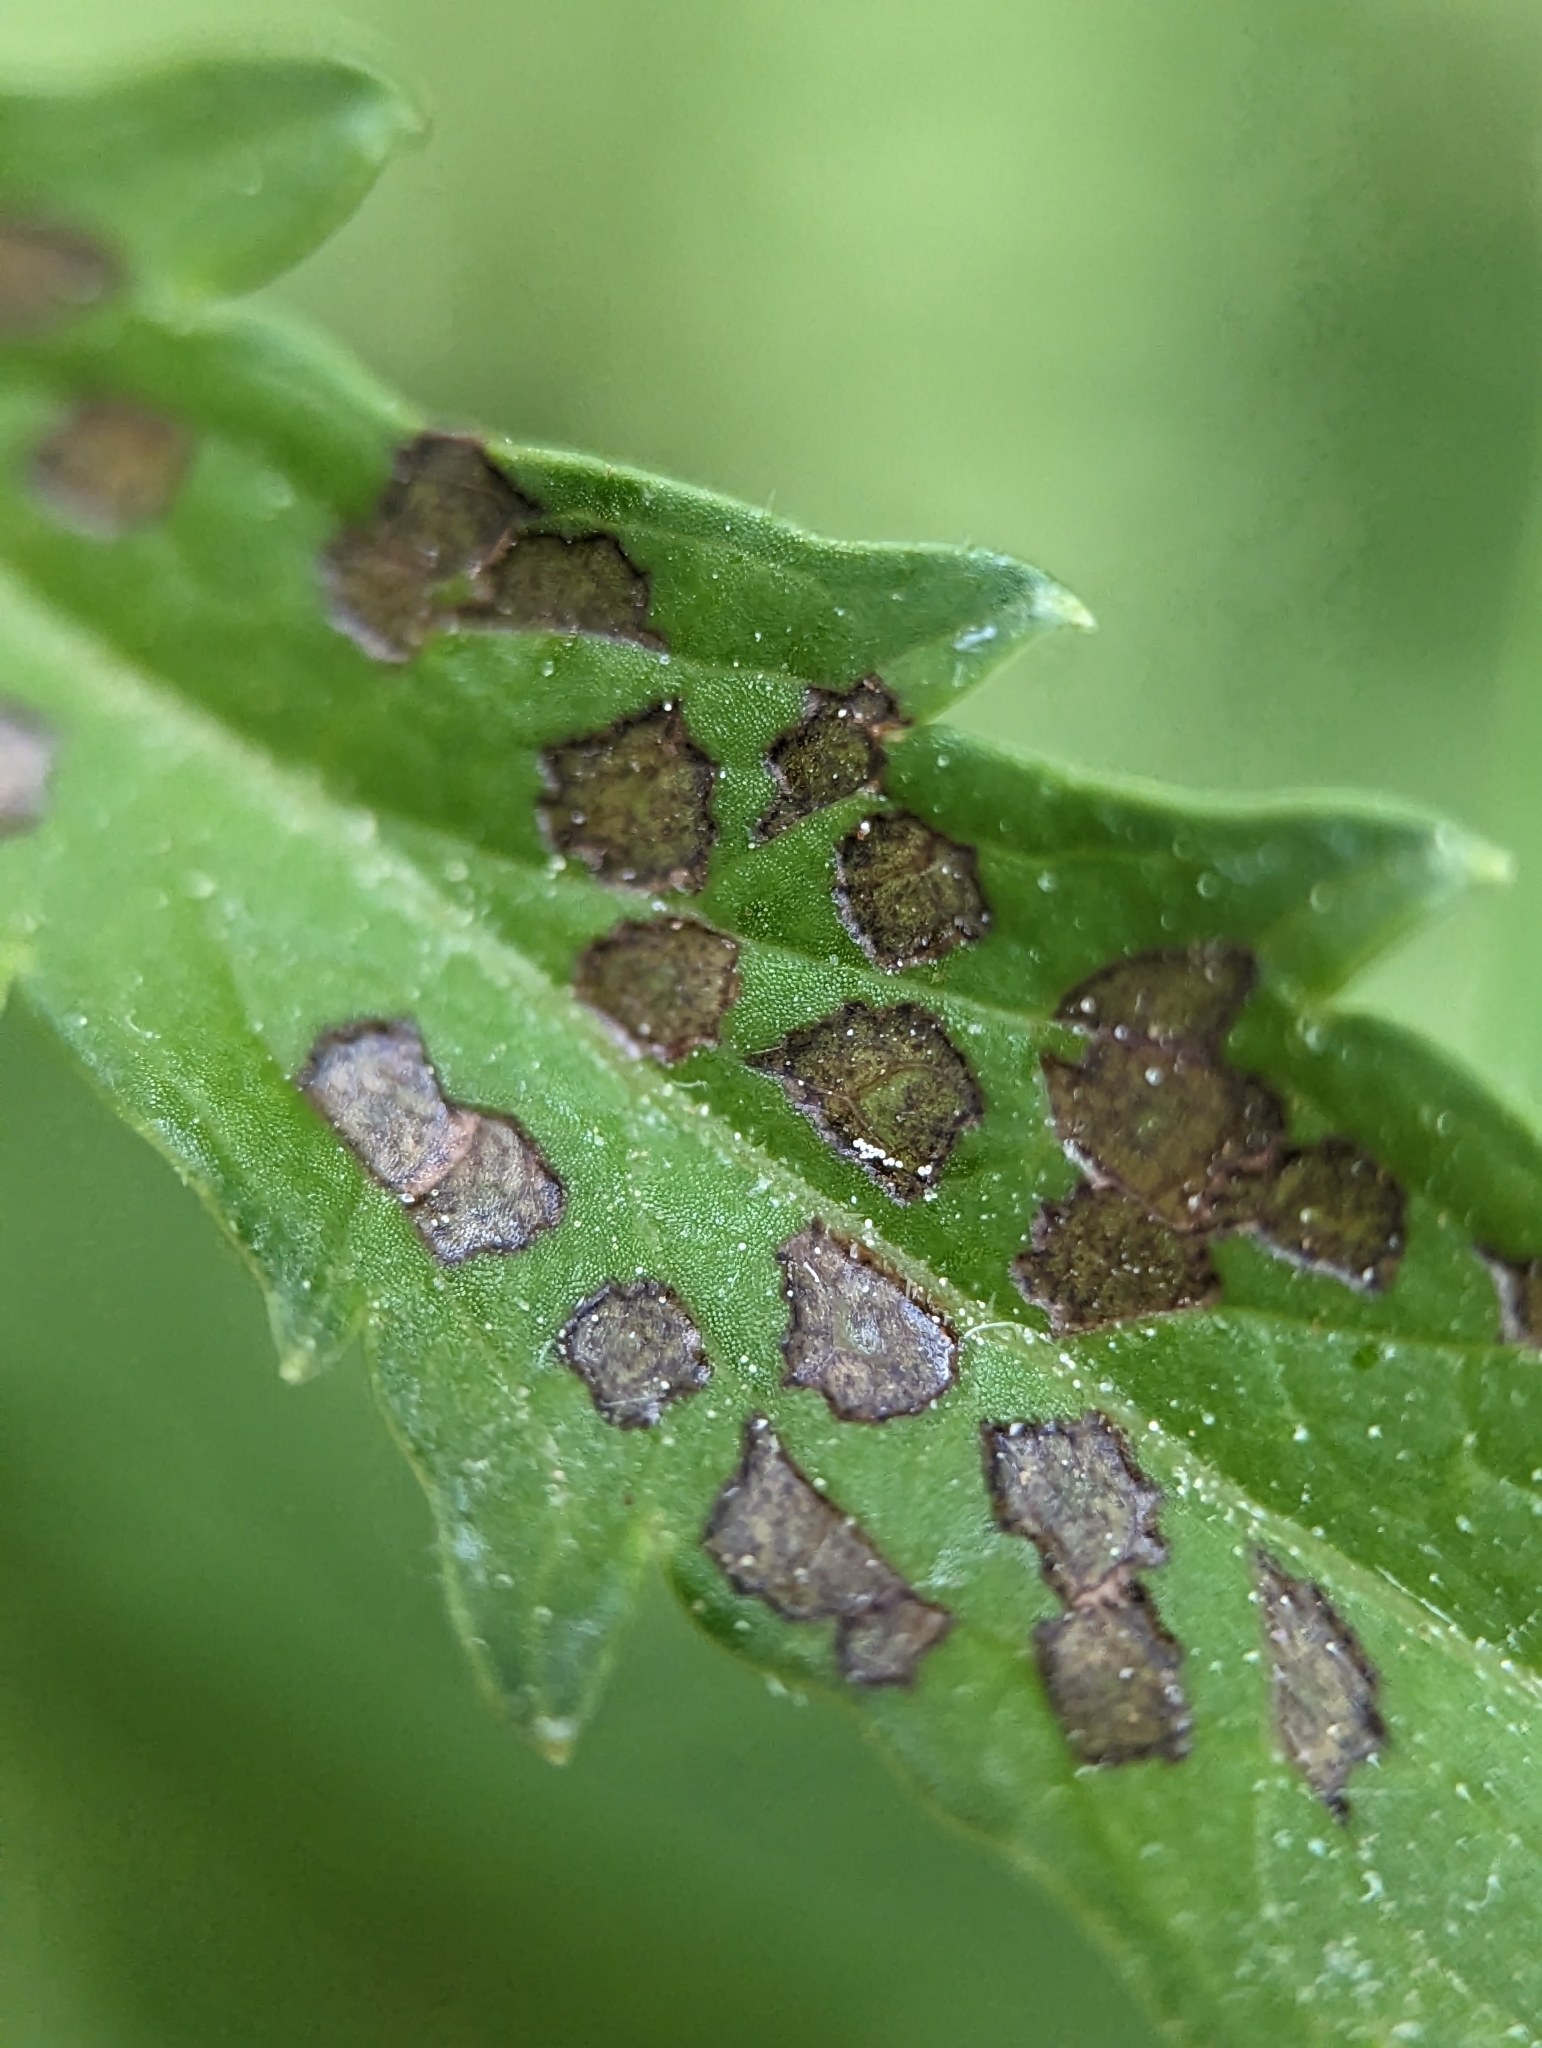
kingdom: Animalia
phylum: Arthropoda
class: Insecta
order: Hemiptera
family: Miridae
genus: Poecilocapsus
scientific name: Poecilocapsus lineatus
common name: Four-lined plant bug
